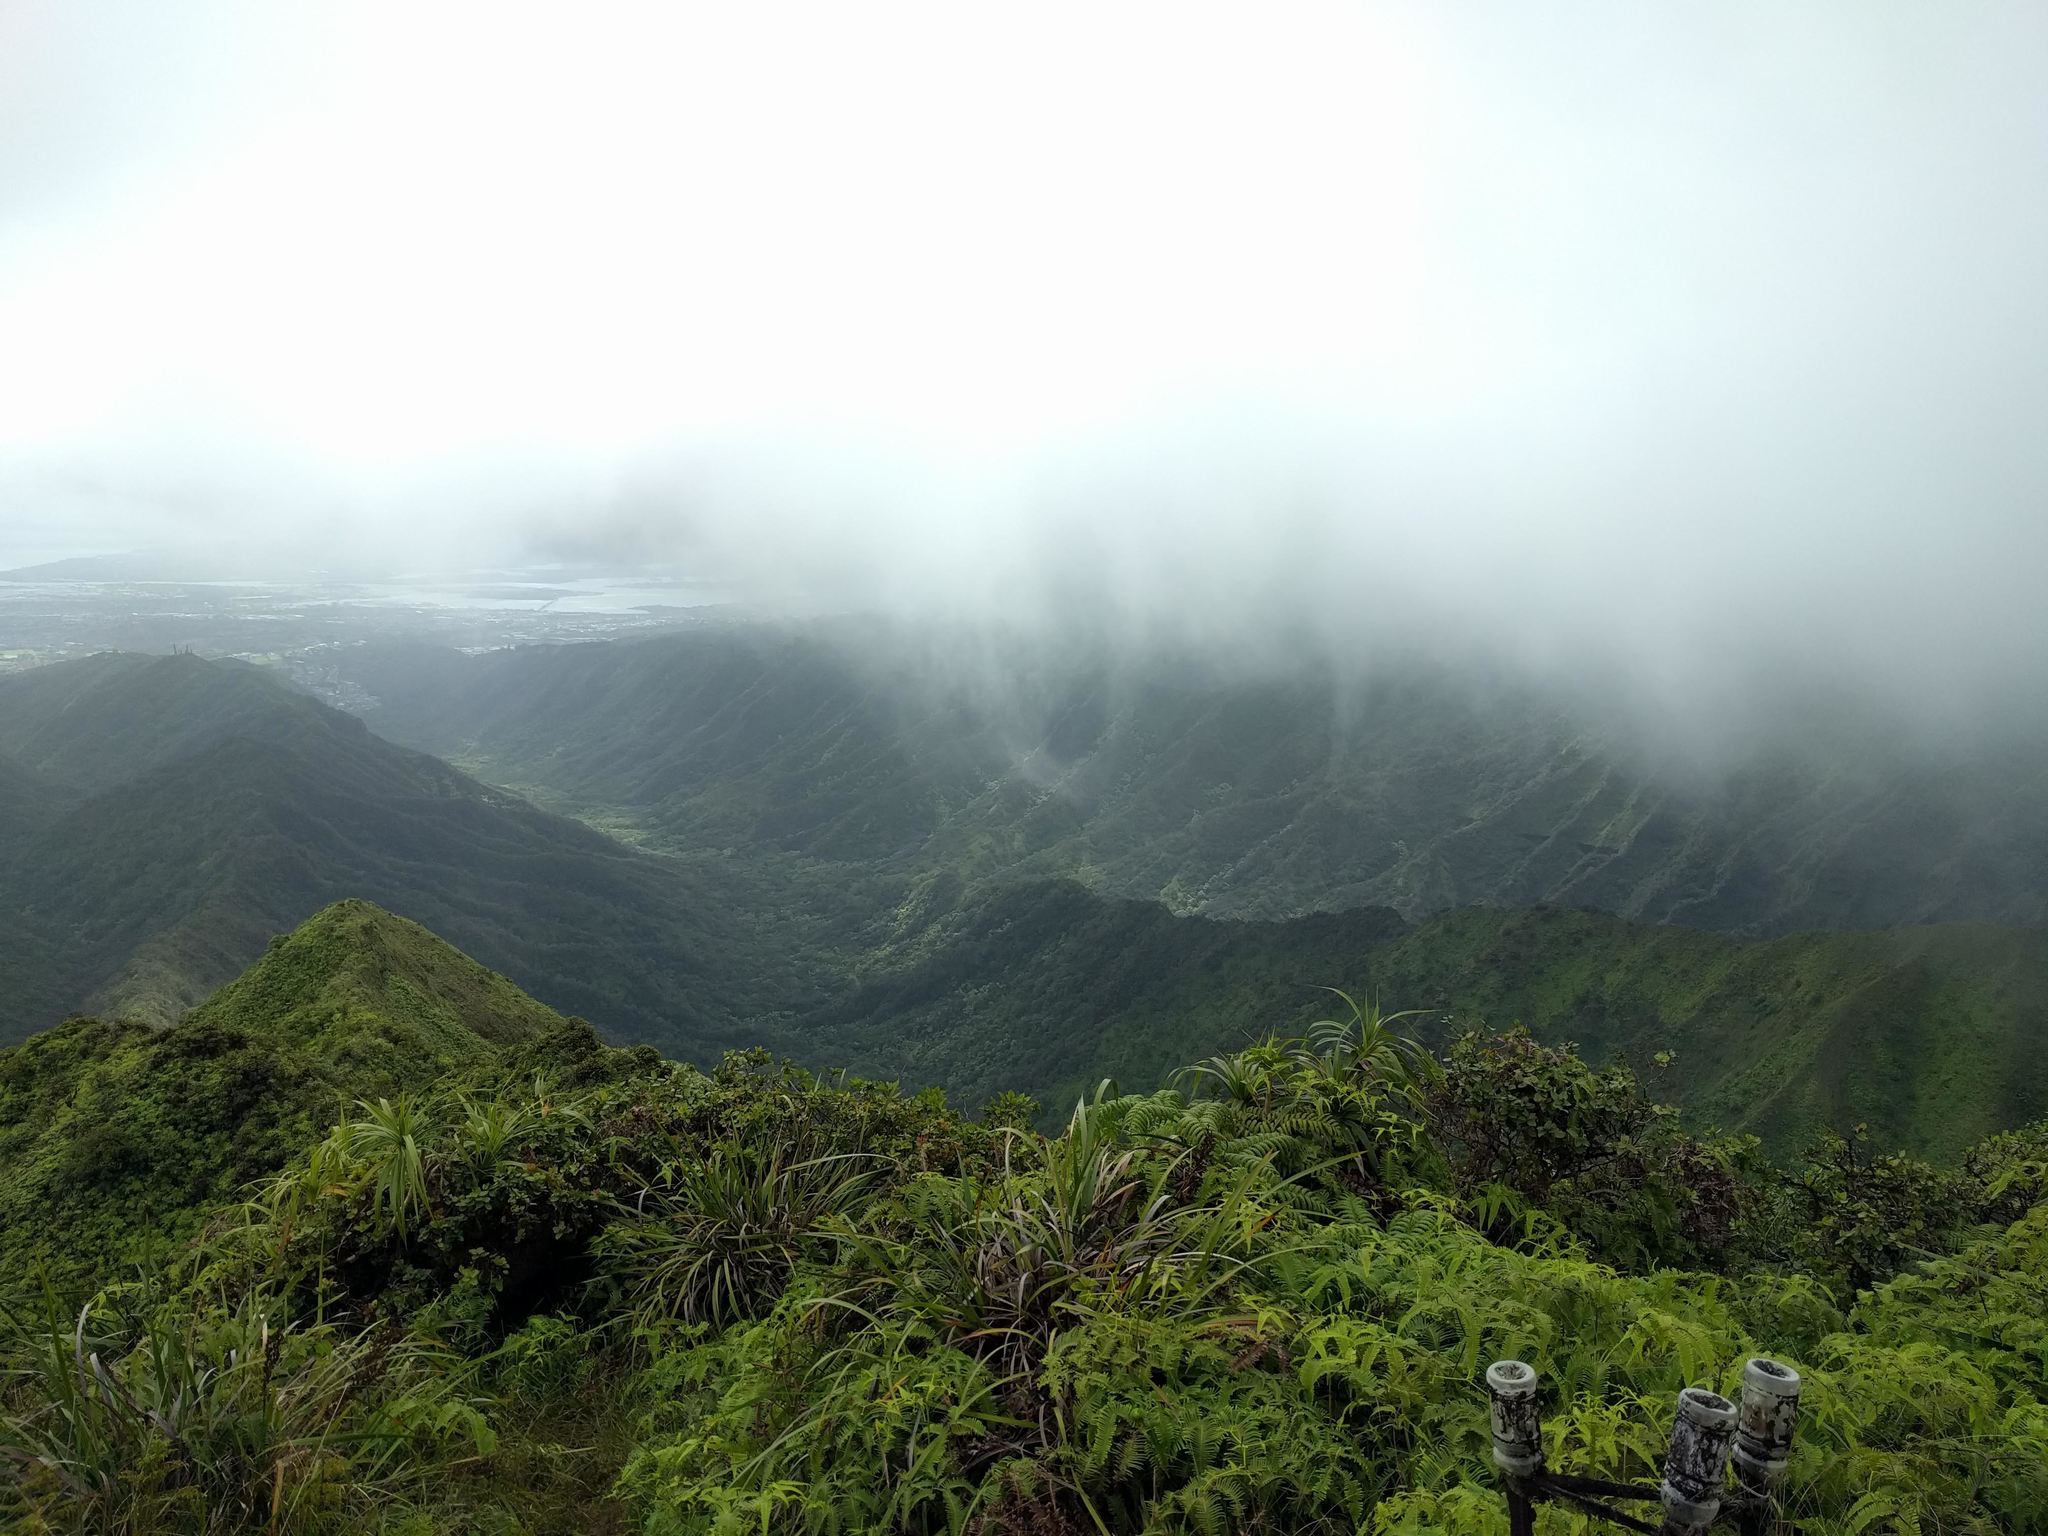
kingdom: Plantae
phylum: Tracheophyta
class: Polypodiopsida
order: Gleicheniales
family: Gleicheniaceae
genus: Dicranopteris
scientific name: Dicranopteris linearis
